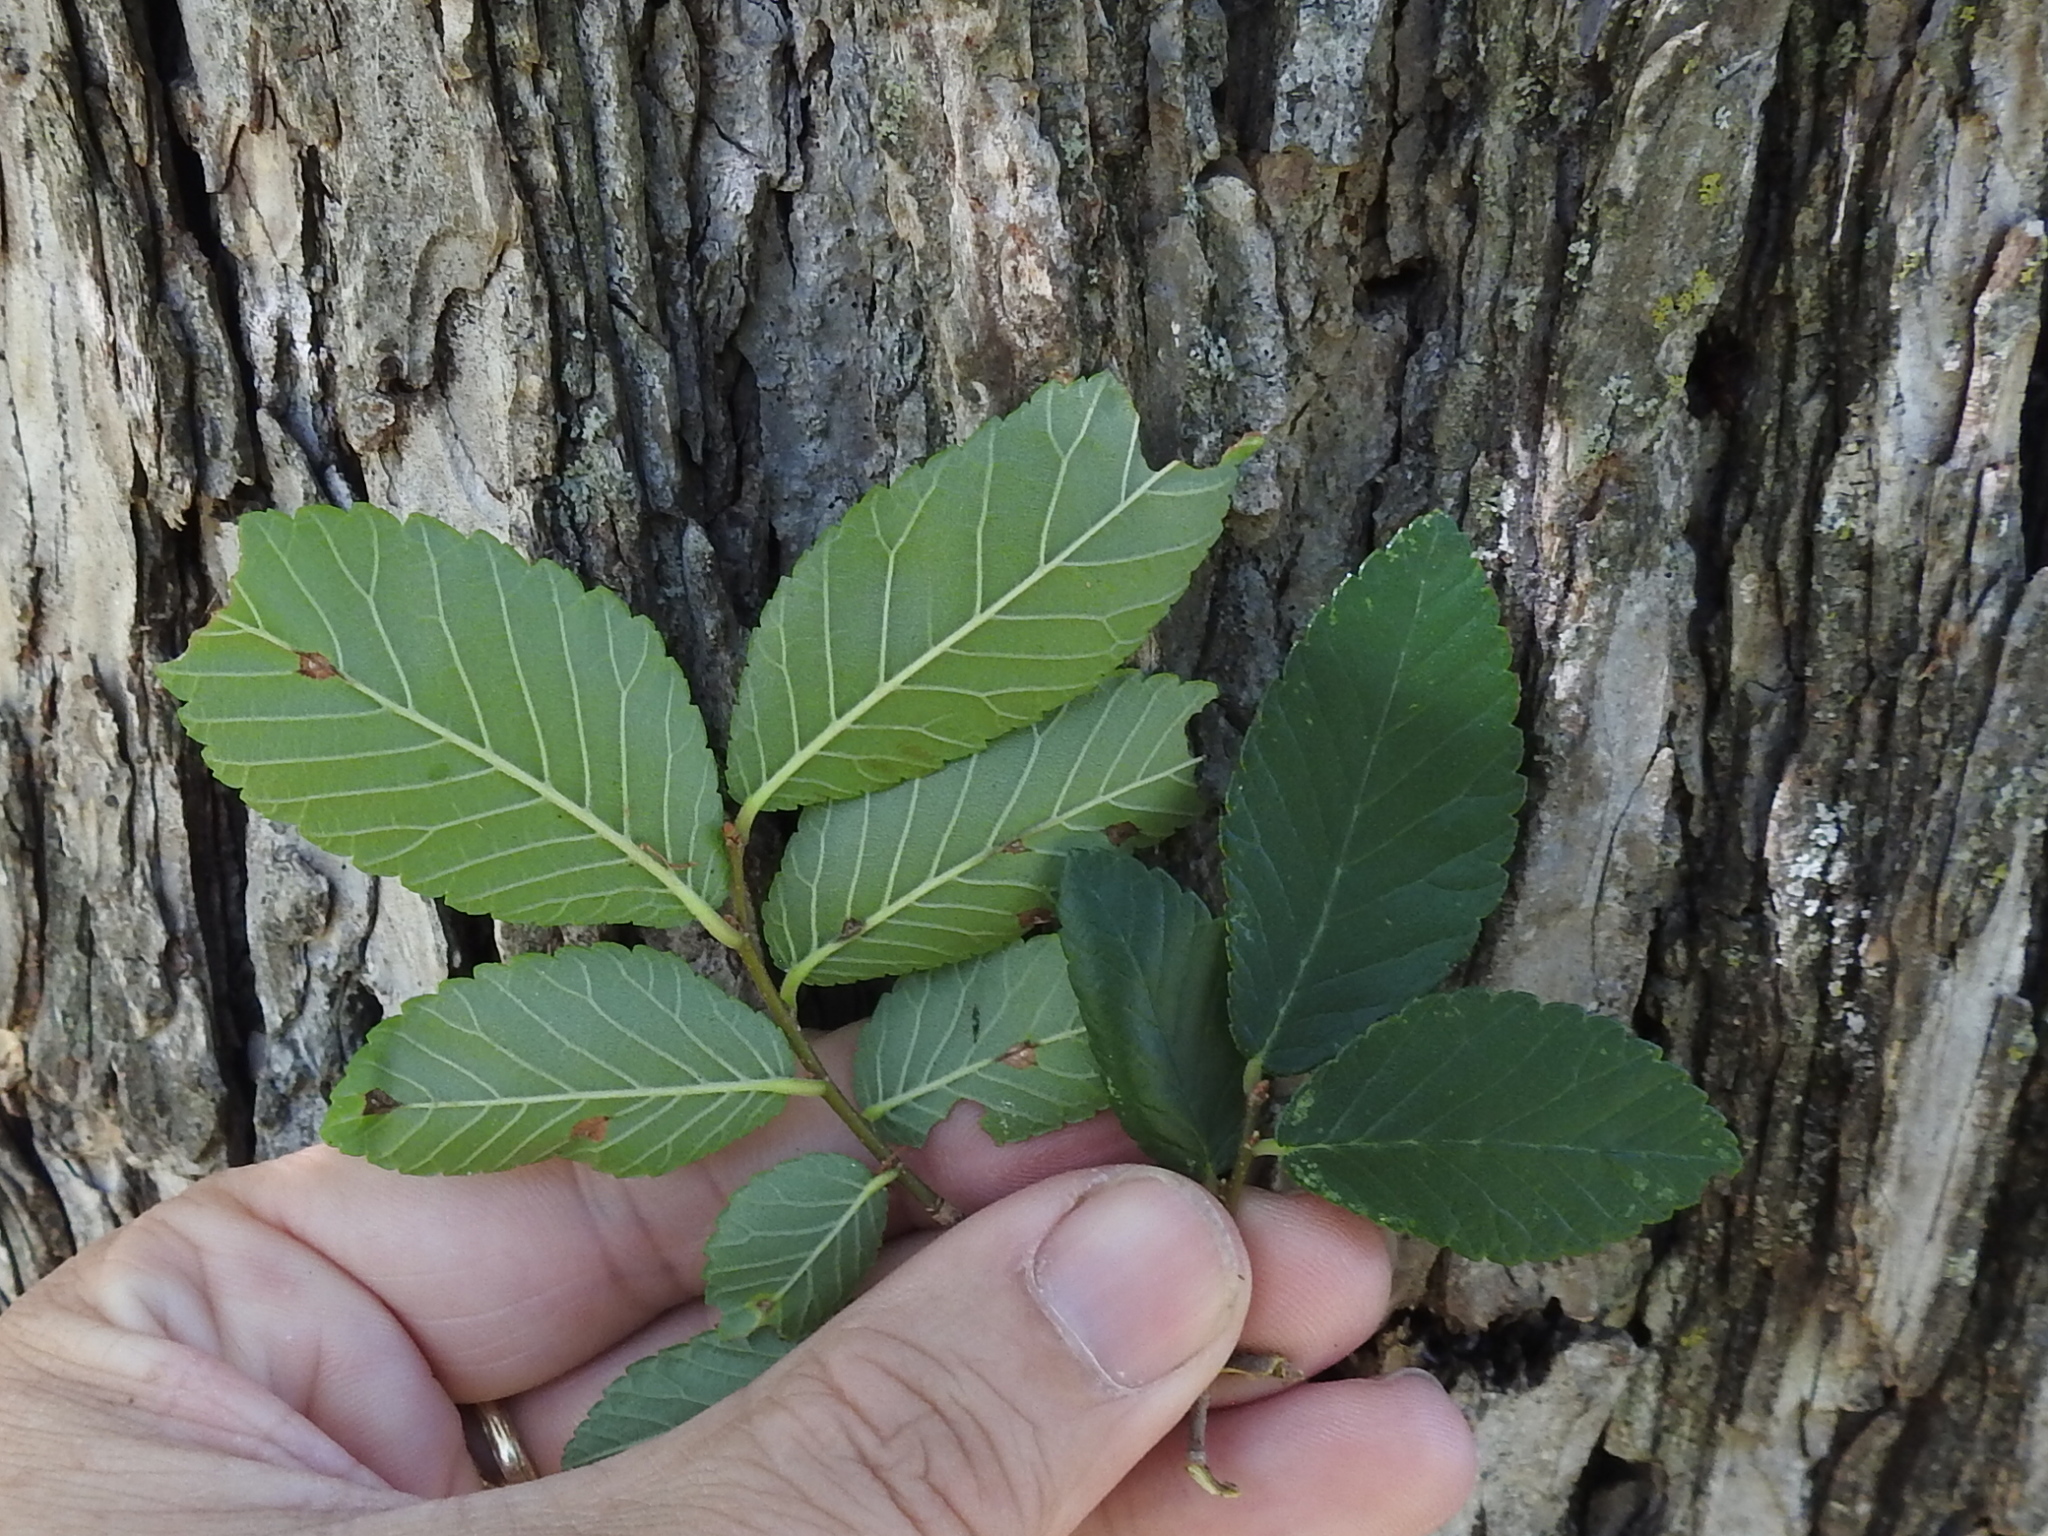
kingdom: Plantae
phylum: Tracheophyta
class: Magnoliopsida
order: Rosales
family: Ulmaceae
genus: Ulmus
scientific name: Ulmus crassifolia
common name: Basket elm
